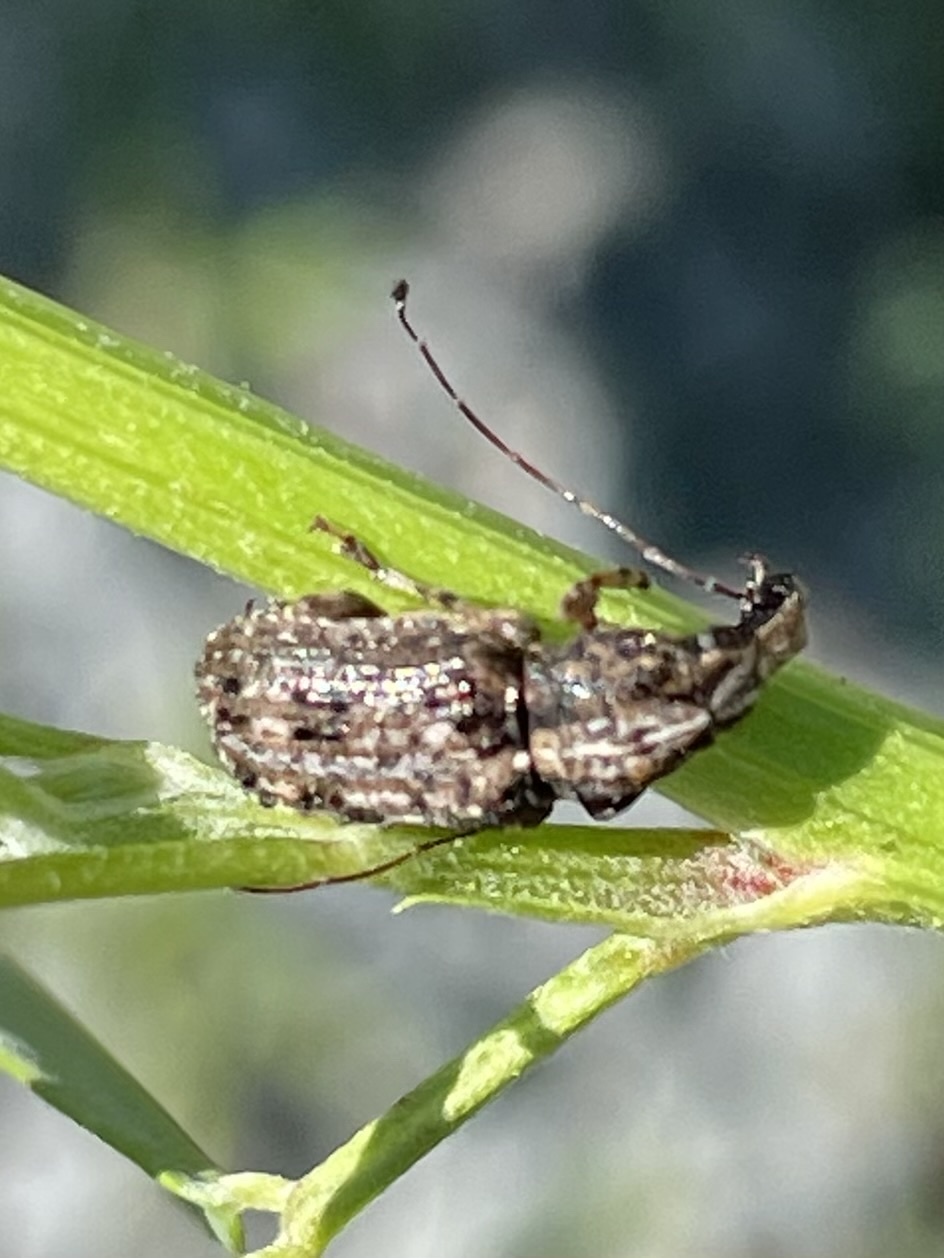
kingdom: Animalia
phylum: Arthropoda
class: Insecta
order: Coleoptera
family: Anthribidae
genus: Meconemus
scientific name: Meconemus infuscatus
